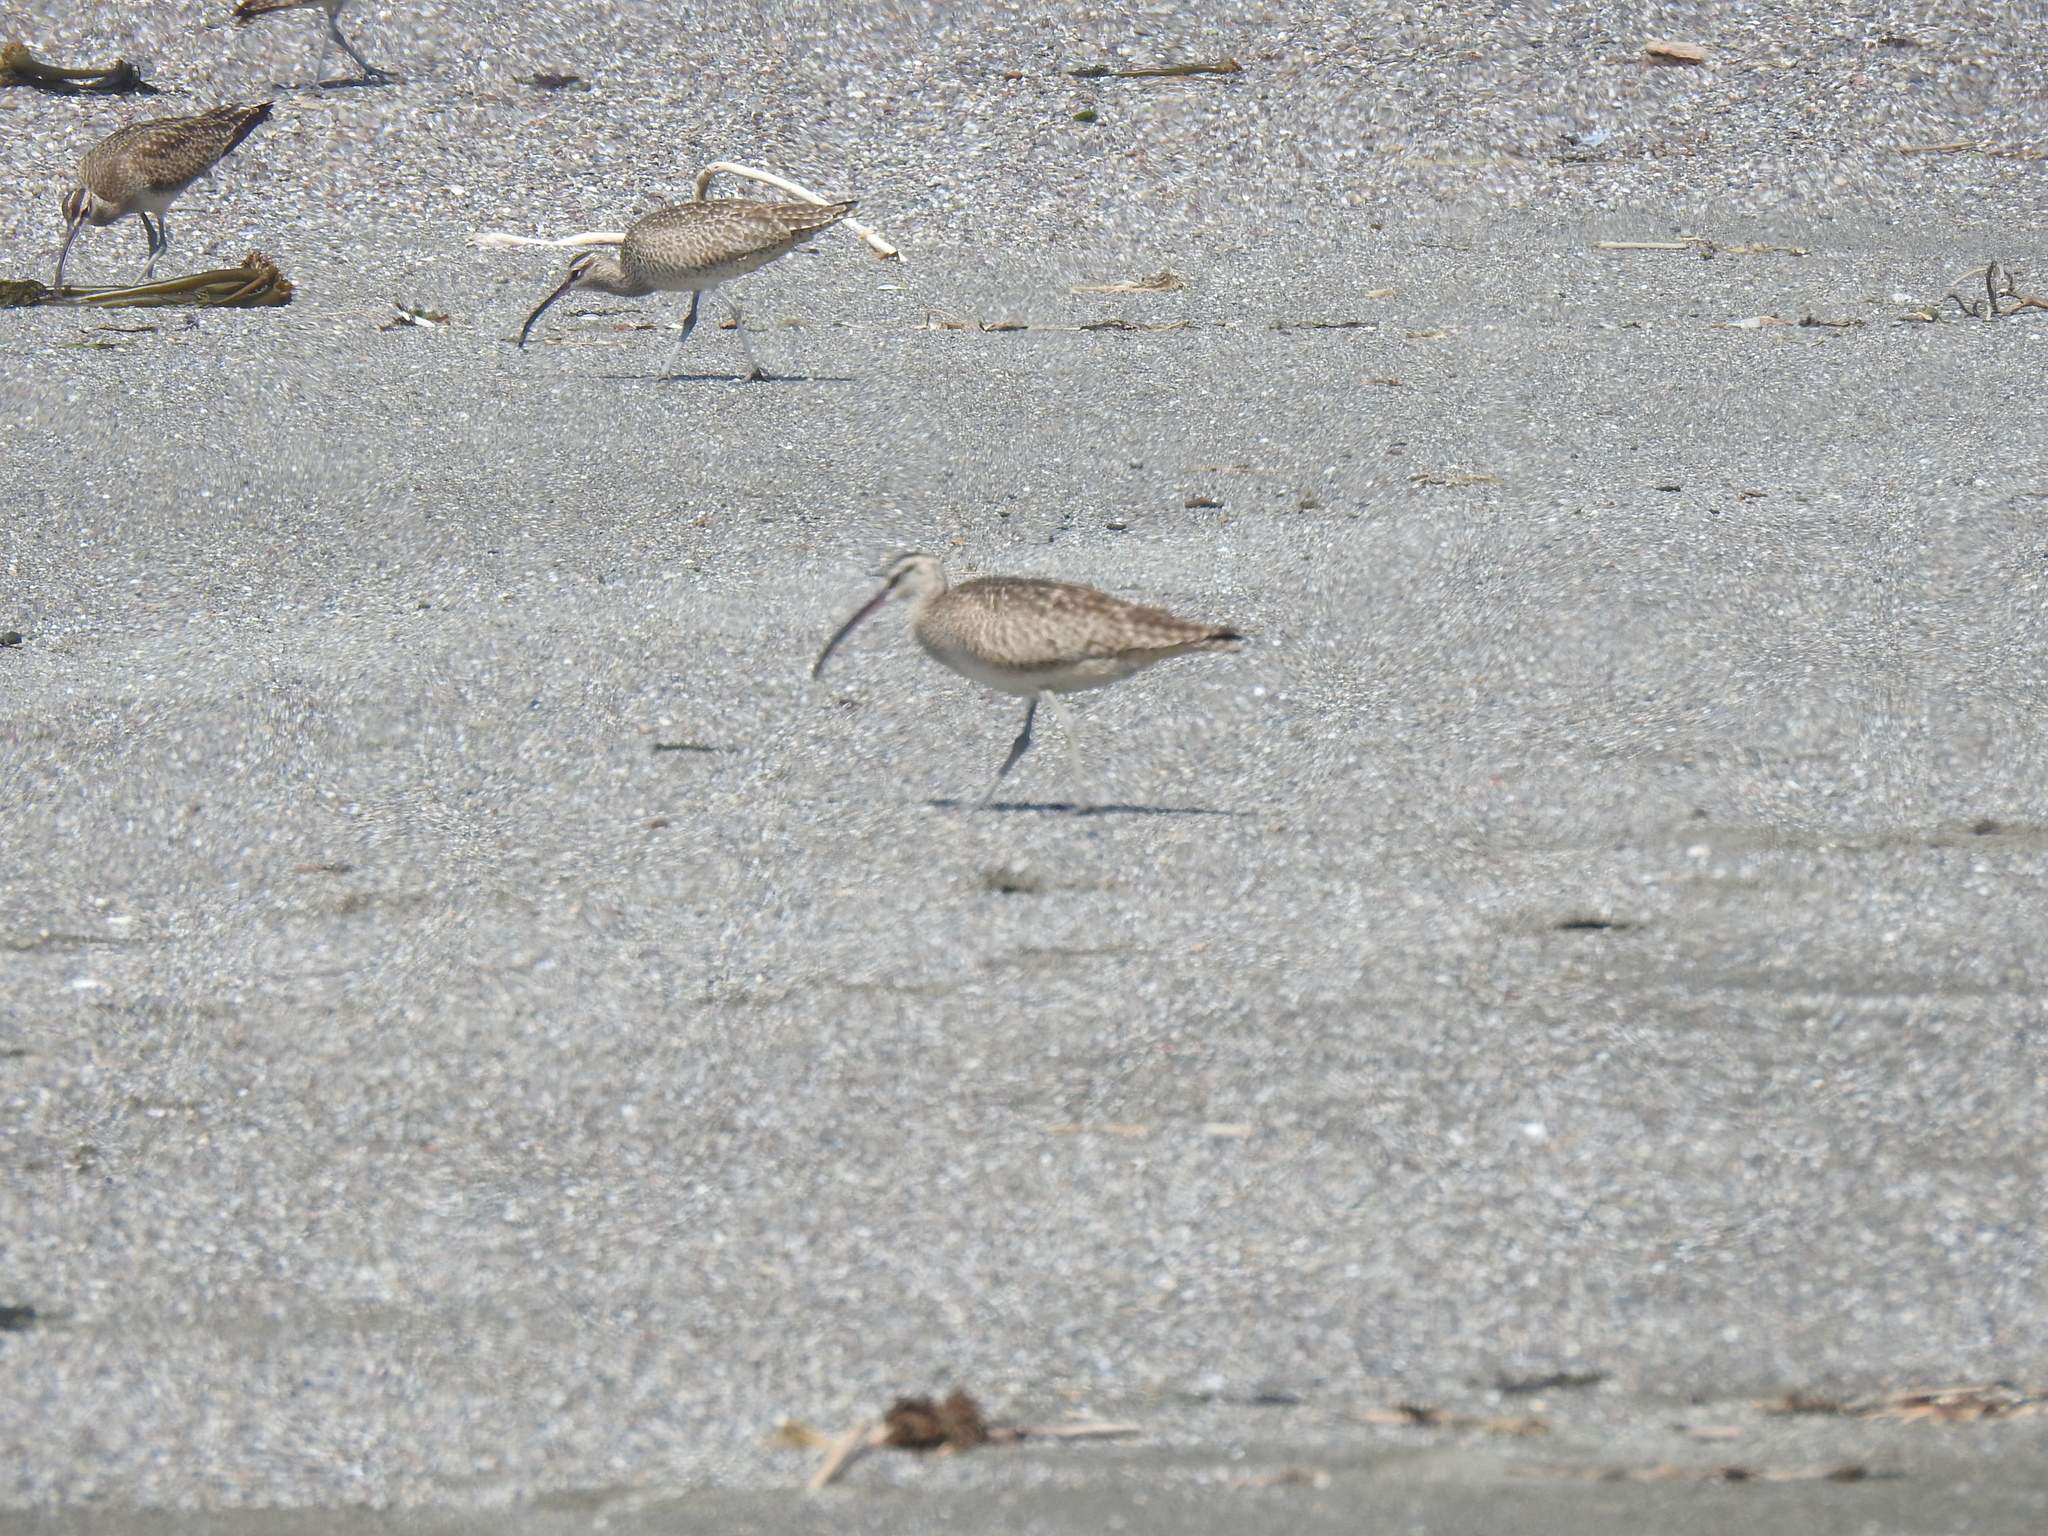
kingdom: Animalia
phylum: Chordata
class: Aves
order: Charadriiformes
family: Scolopacidae
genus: Numenius
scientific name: Numenius phaeopus
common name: Whimbrel
